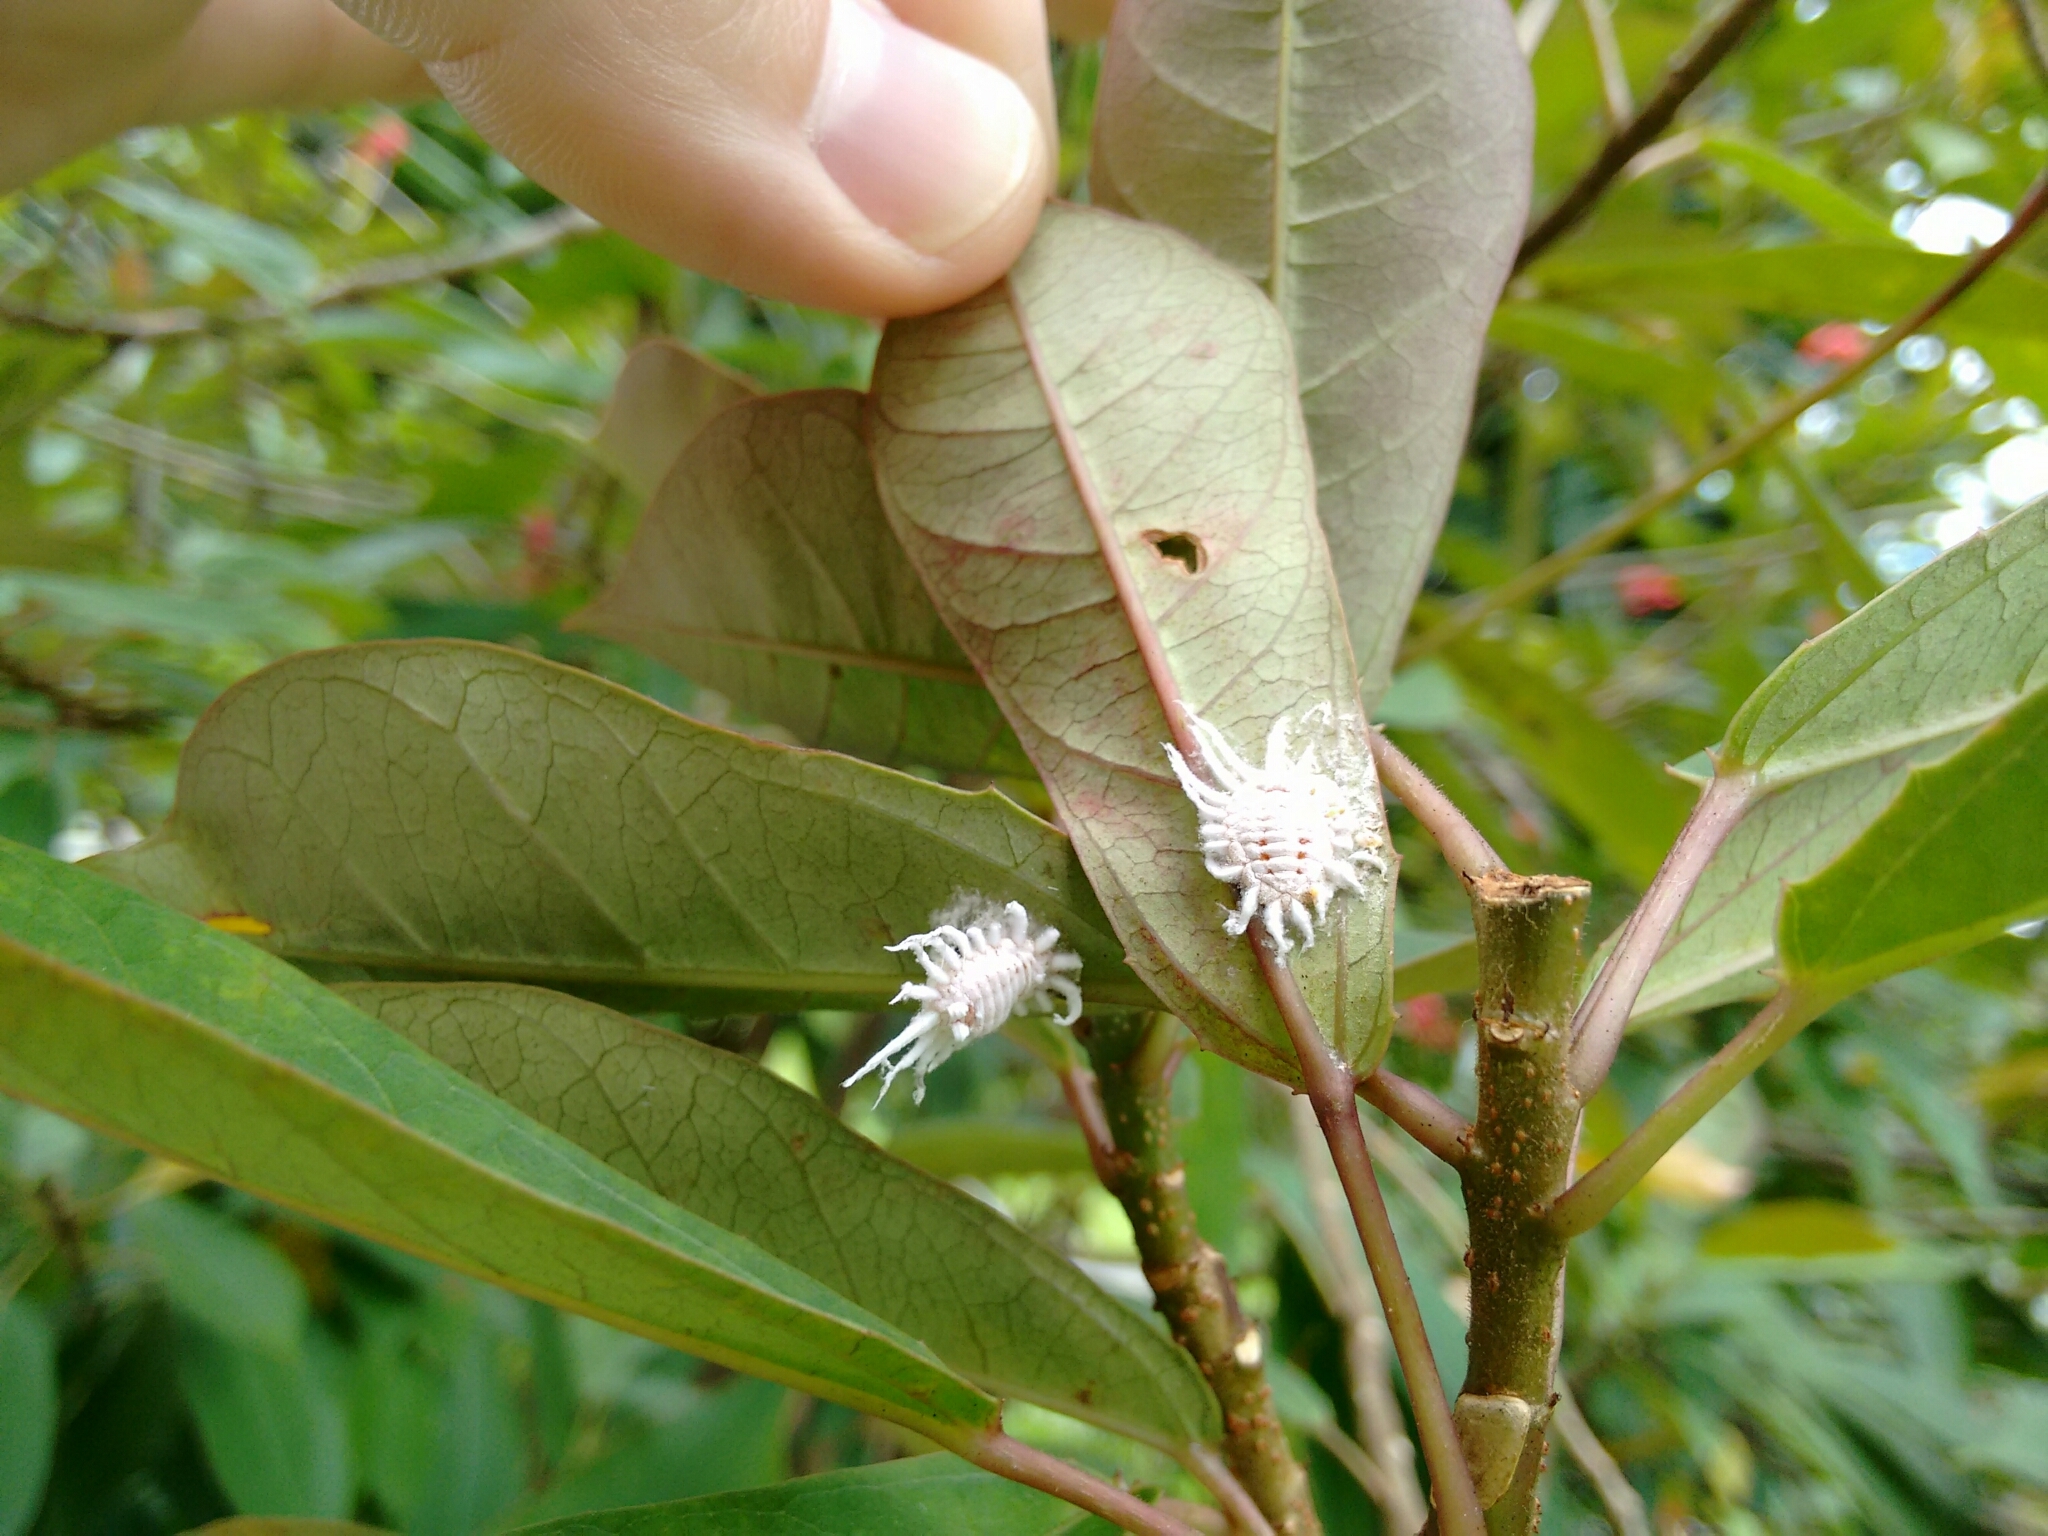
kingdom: Animalia
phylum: Arthropoda
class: Insecta
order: Hemiptera
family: Margarodidae
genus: Icerya
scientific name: Icerya aegyptiaca
